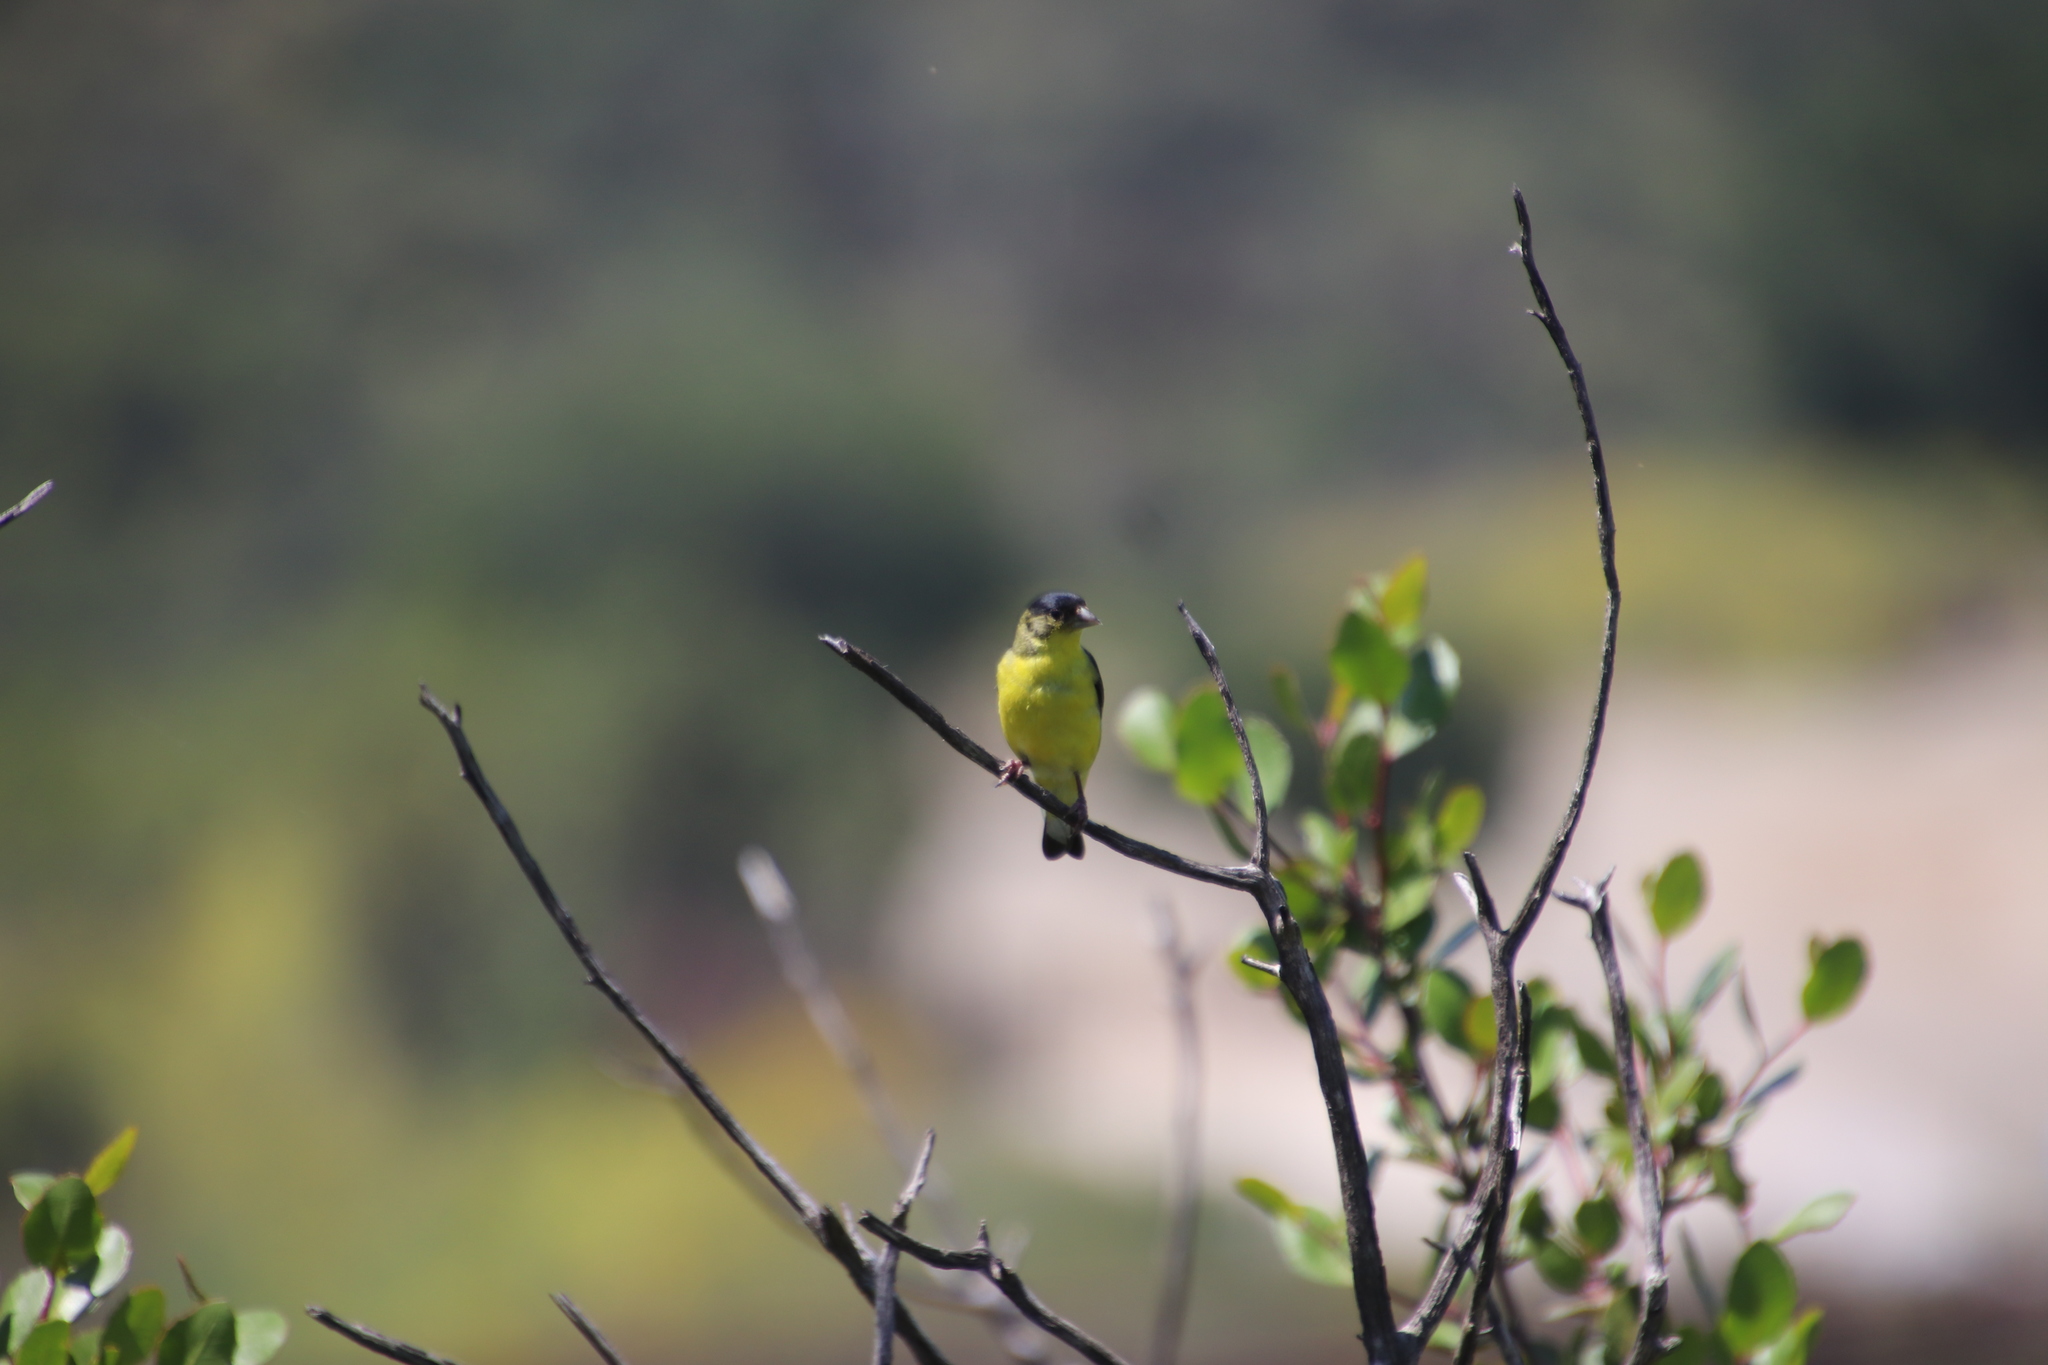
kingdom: Animalia
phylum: Chordata
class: Aves
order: Passeriformes
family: Fringillidae
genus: Spinus
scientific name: Spinus psaltria
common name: Lesser goldfinch
